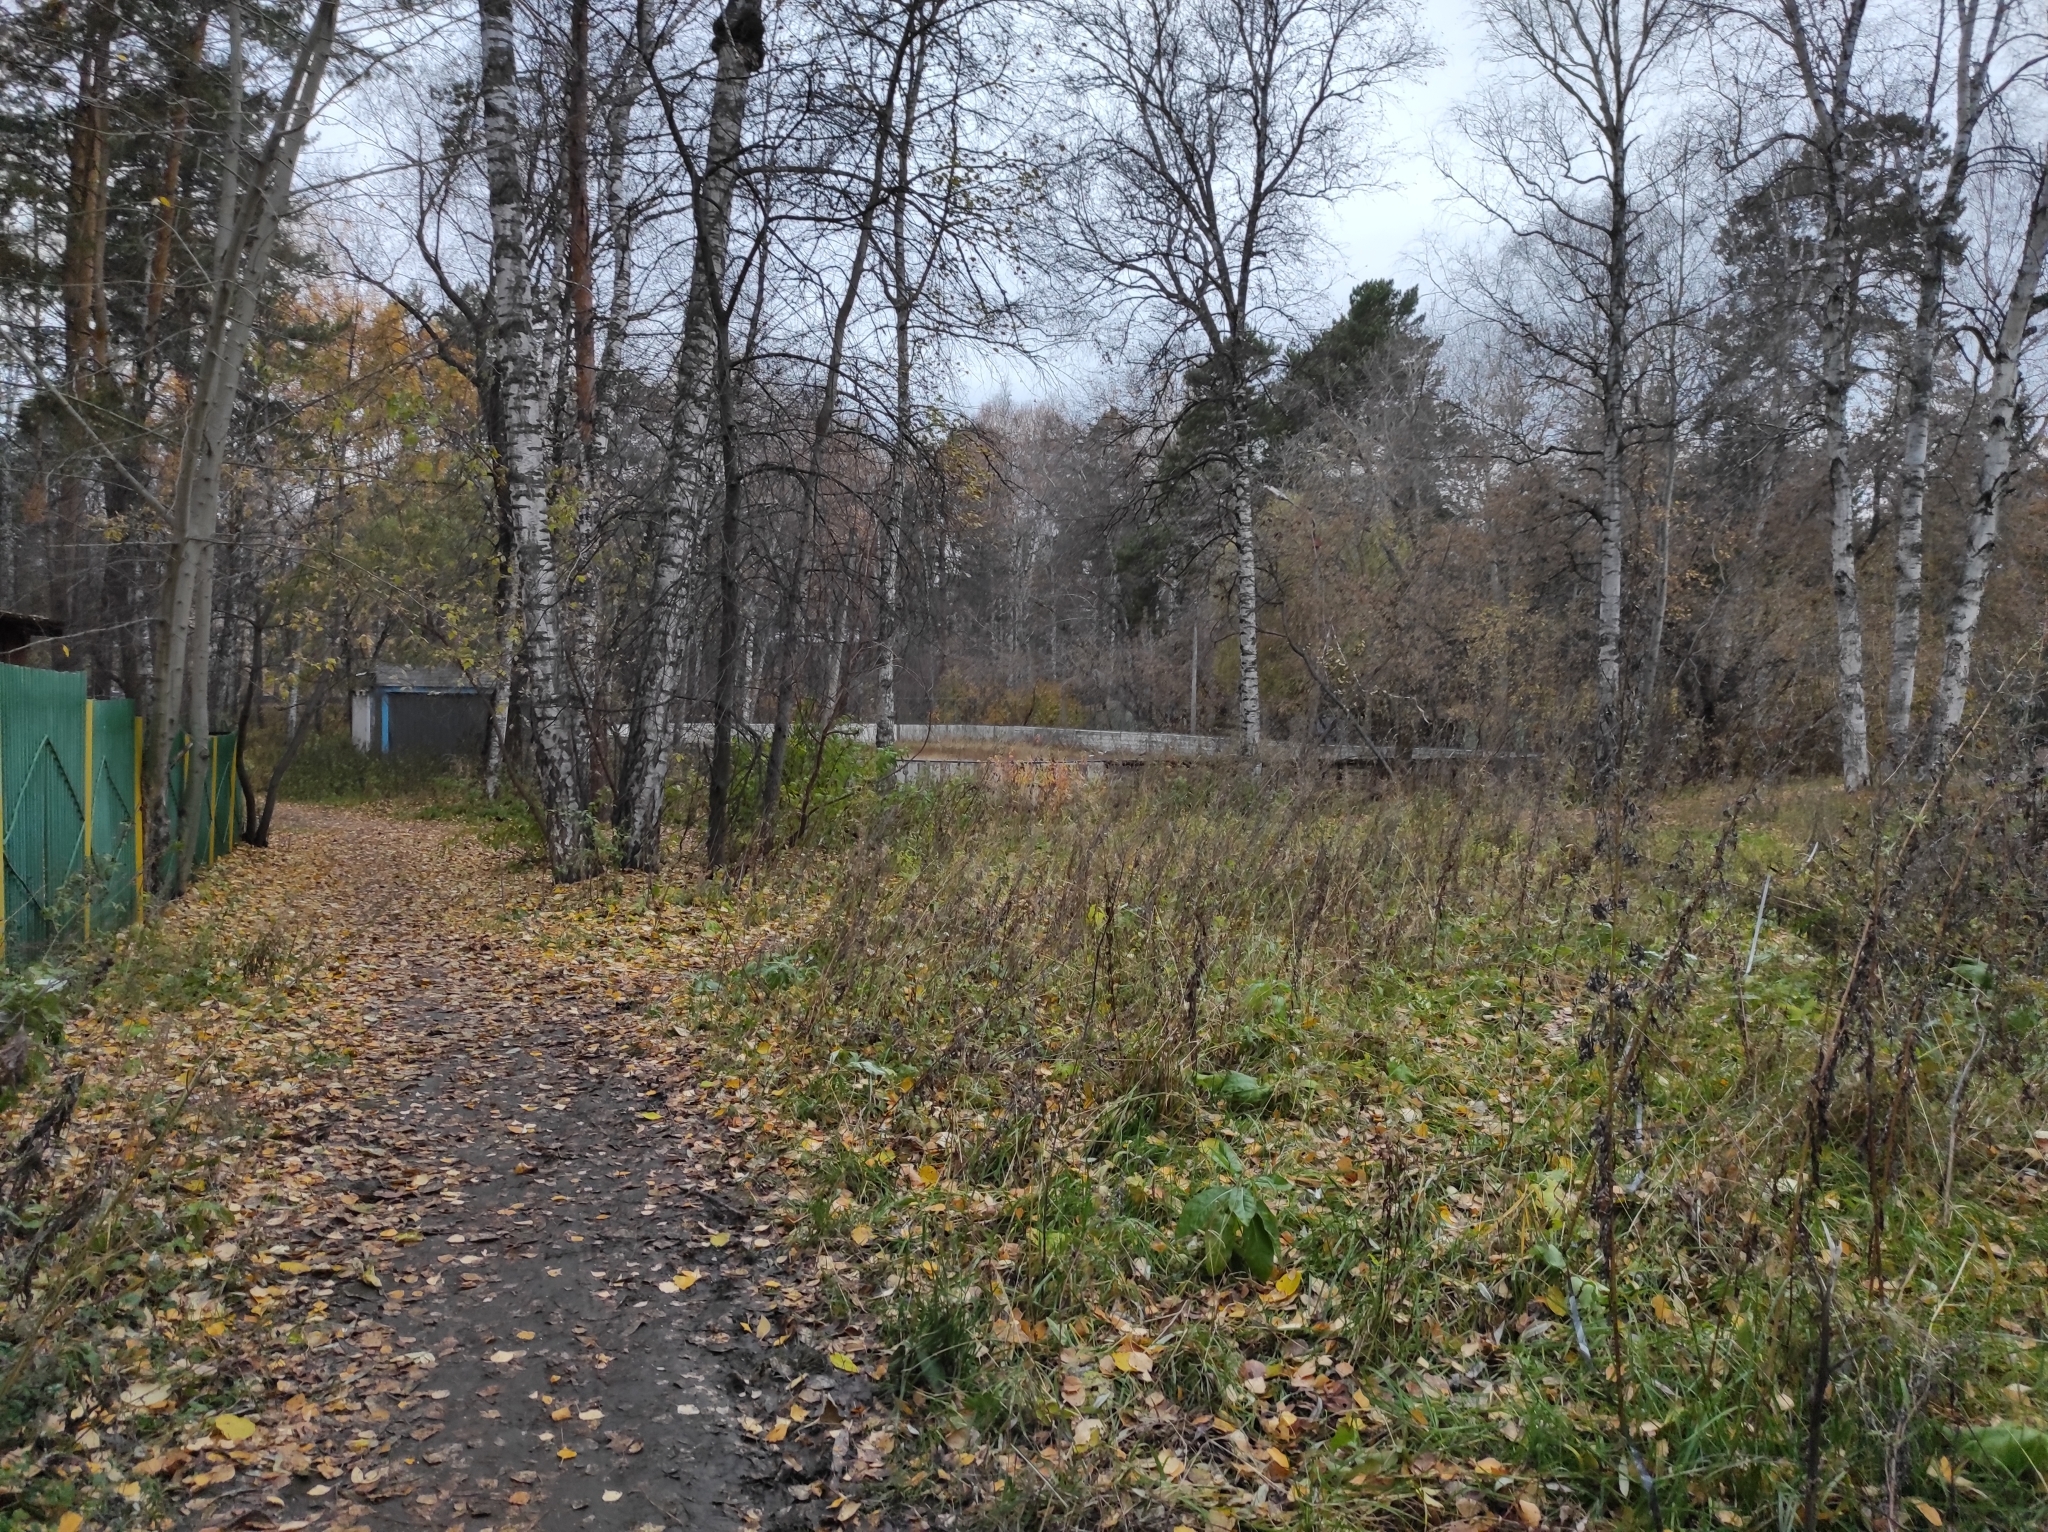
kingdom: Plantae
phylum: Tracheophyta
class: Magnoliopsida
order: Fagales
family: Betulaceae
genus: Betula
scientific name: Betula pendula
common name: Silver birch
